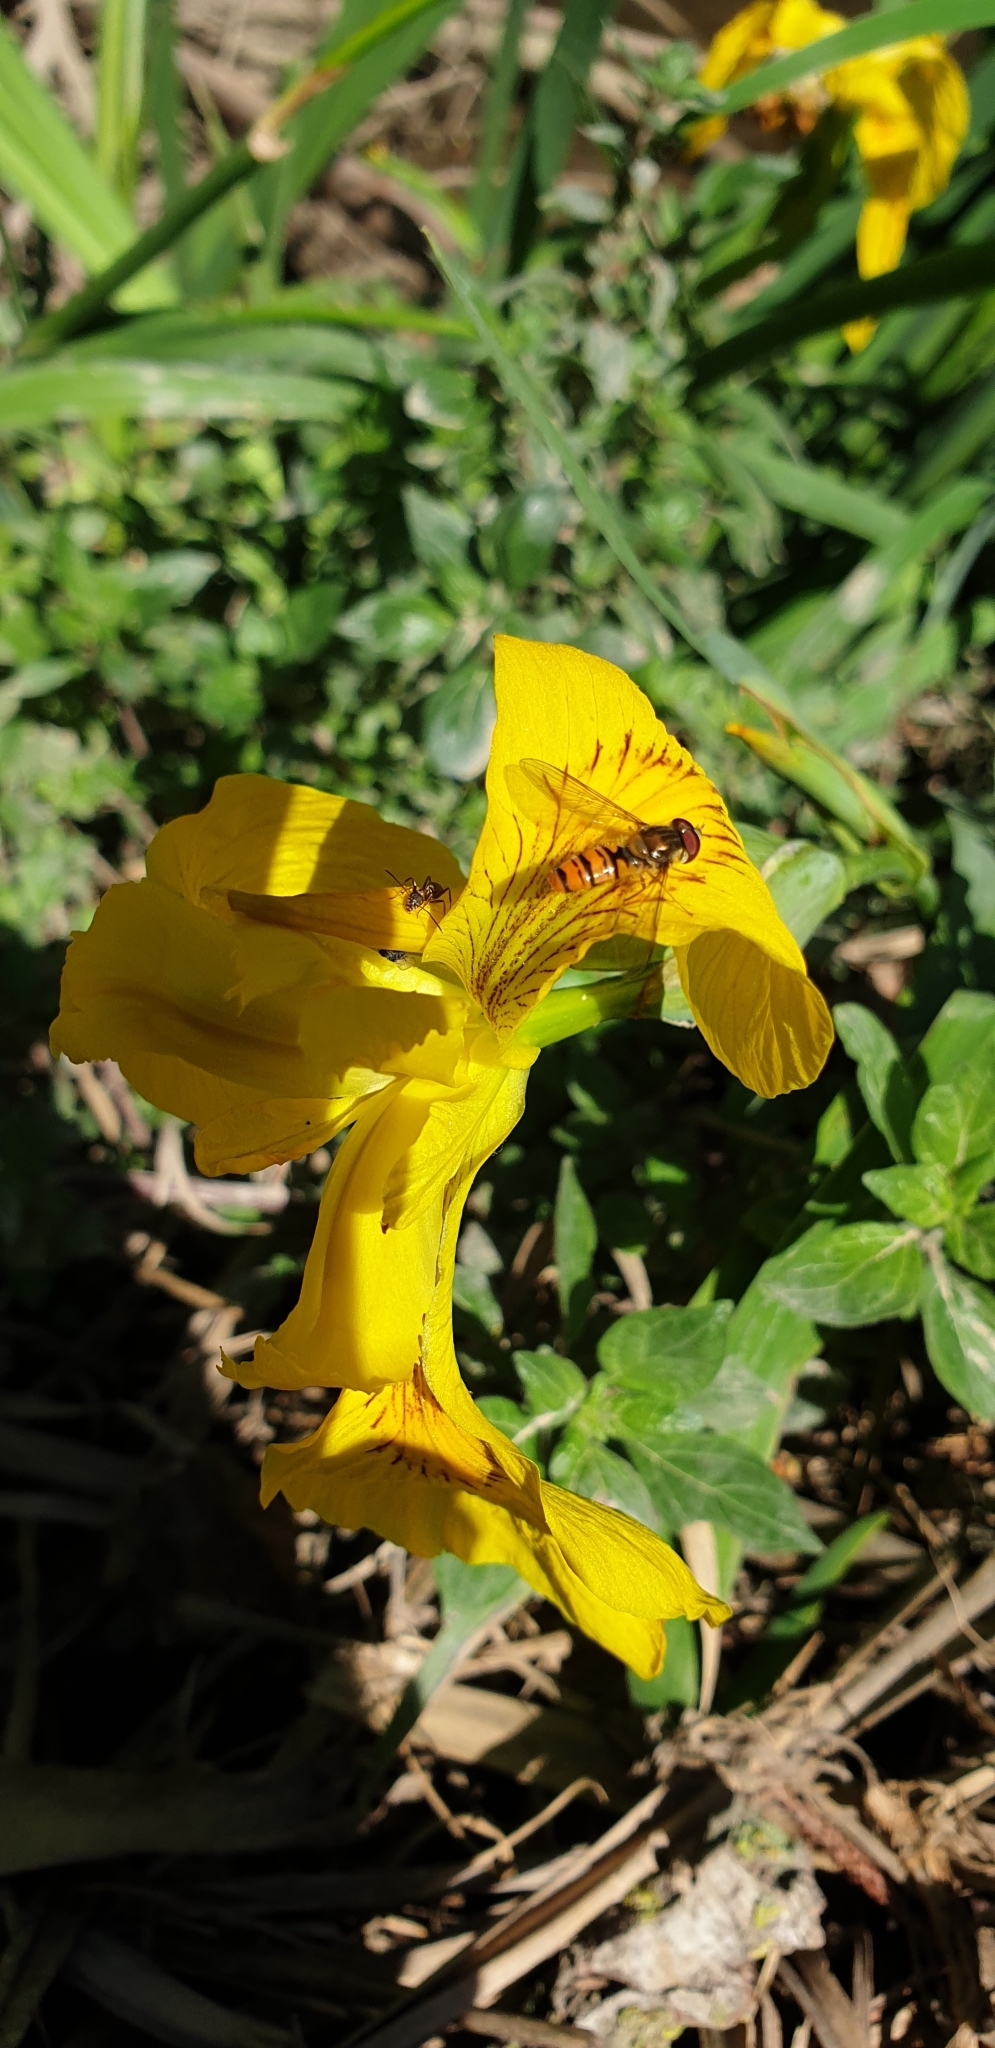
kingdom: Animalia
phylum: Arthropoda
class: Insecta
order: Diptera
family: Syrphidae
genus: Episyrphus
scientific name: Episyrphus balteatus
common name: Marmalade hoverfly
